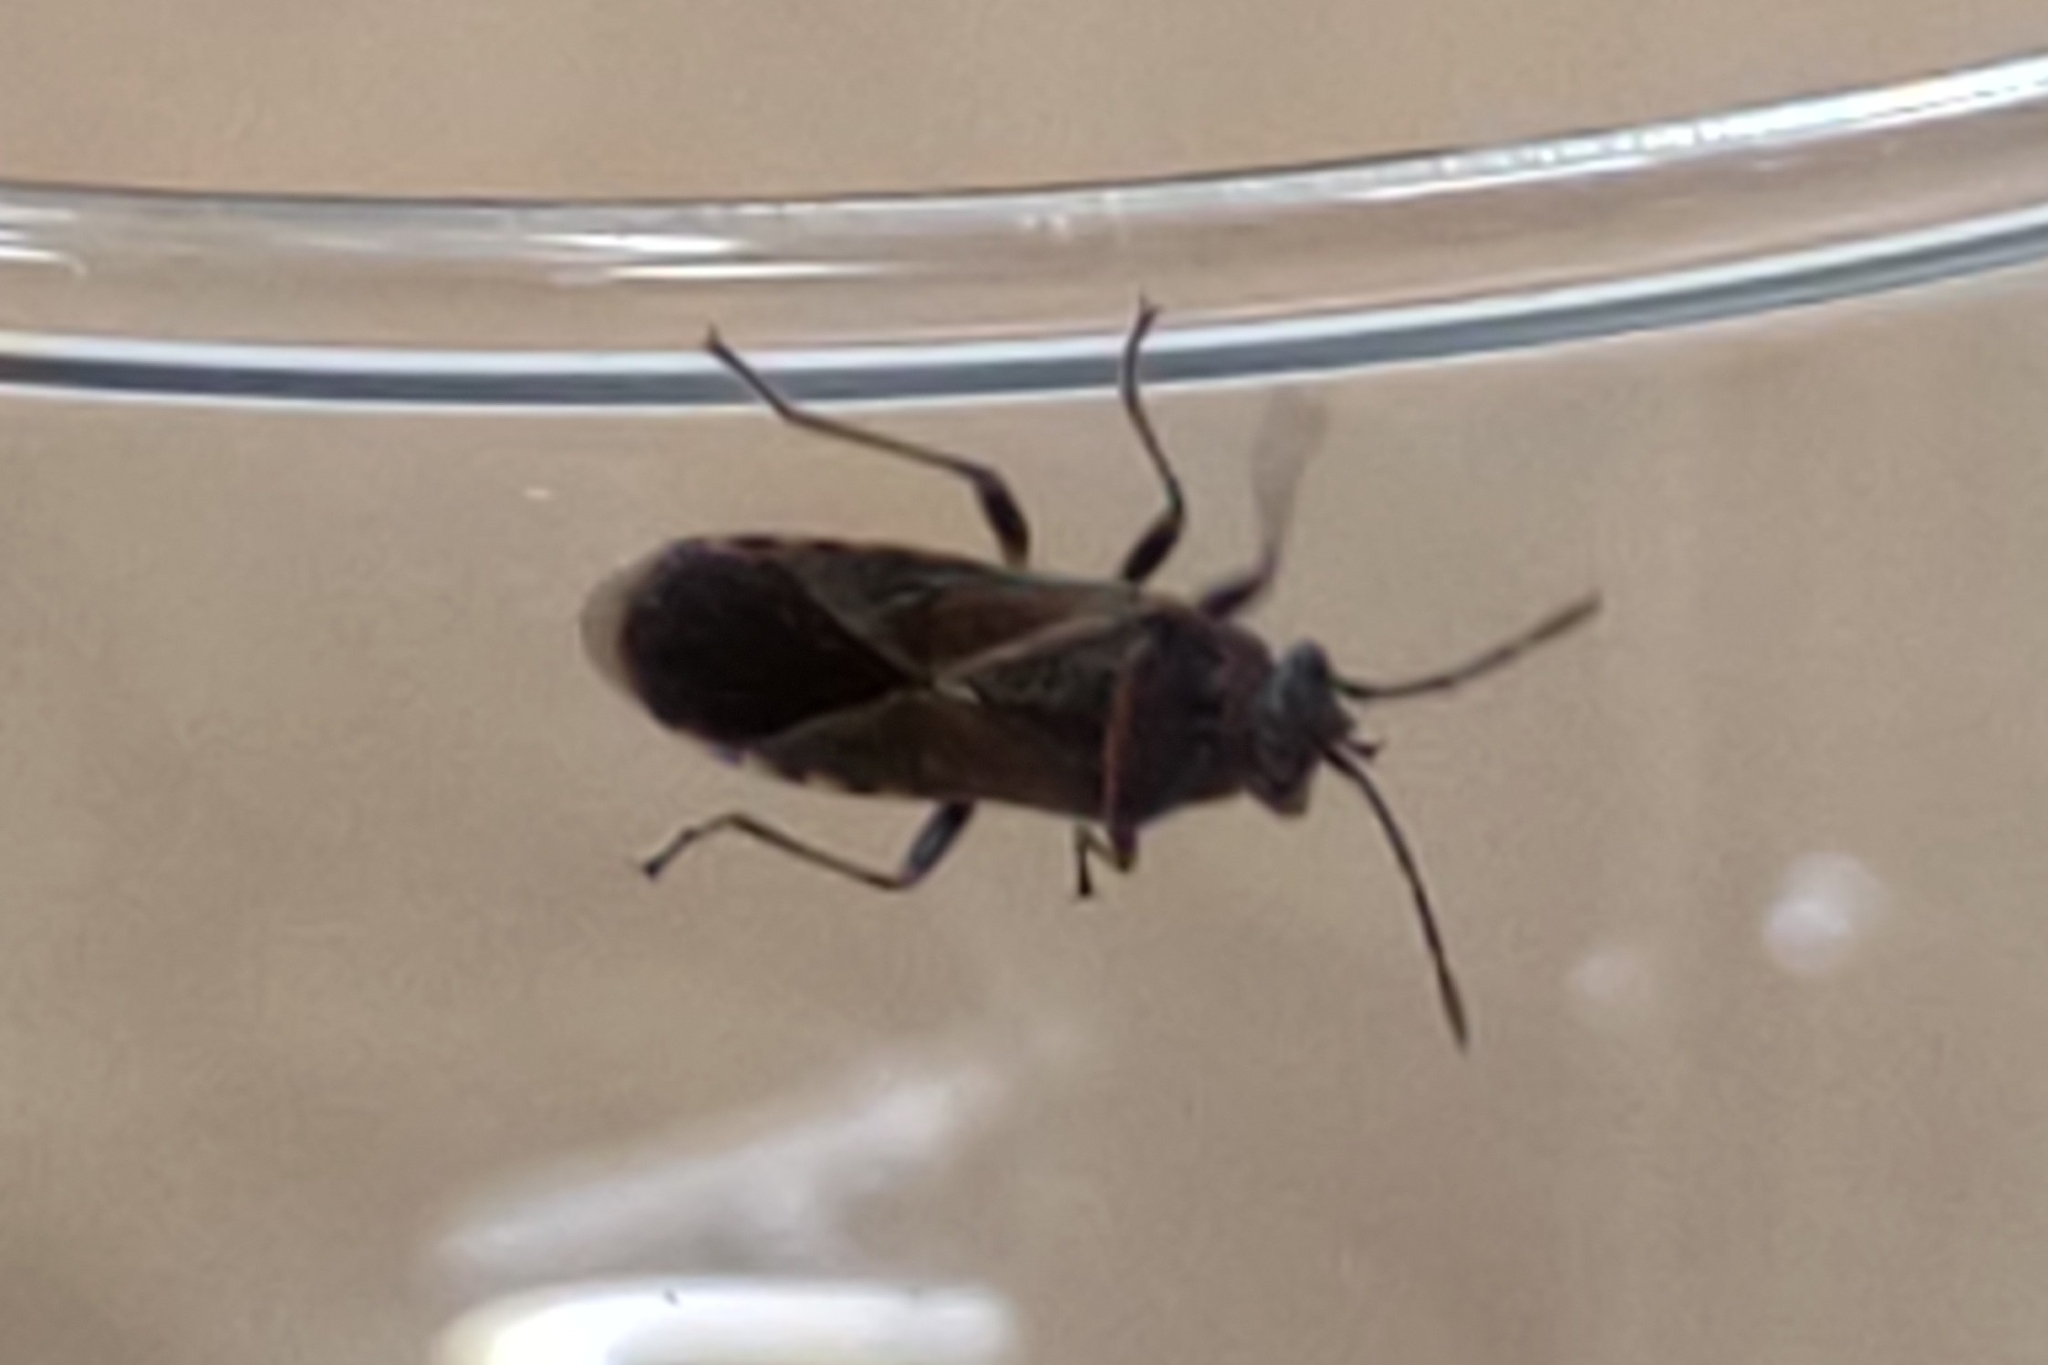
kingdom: Animalia
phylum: Arthropoda
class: Insecta
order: Hemiptera
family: Lygaeidae
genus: Arocatus
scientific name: Arocatus melanocephalus
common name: Lygaeid bug
